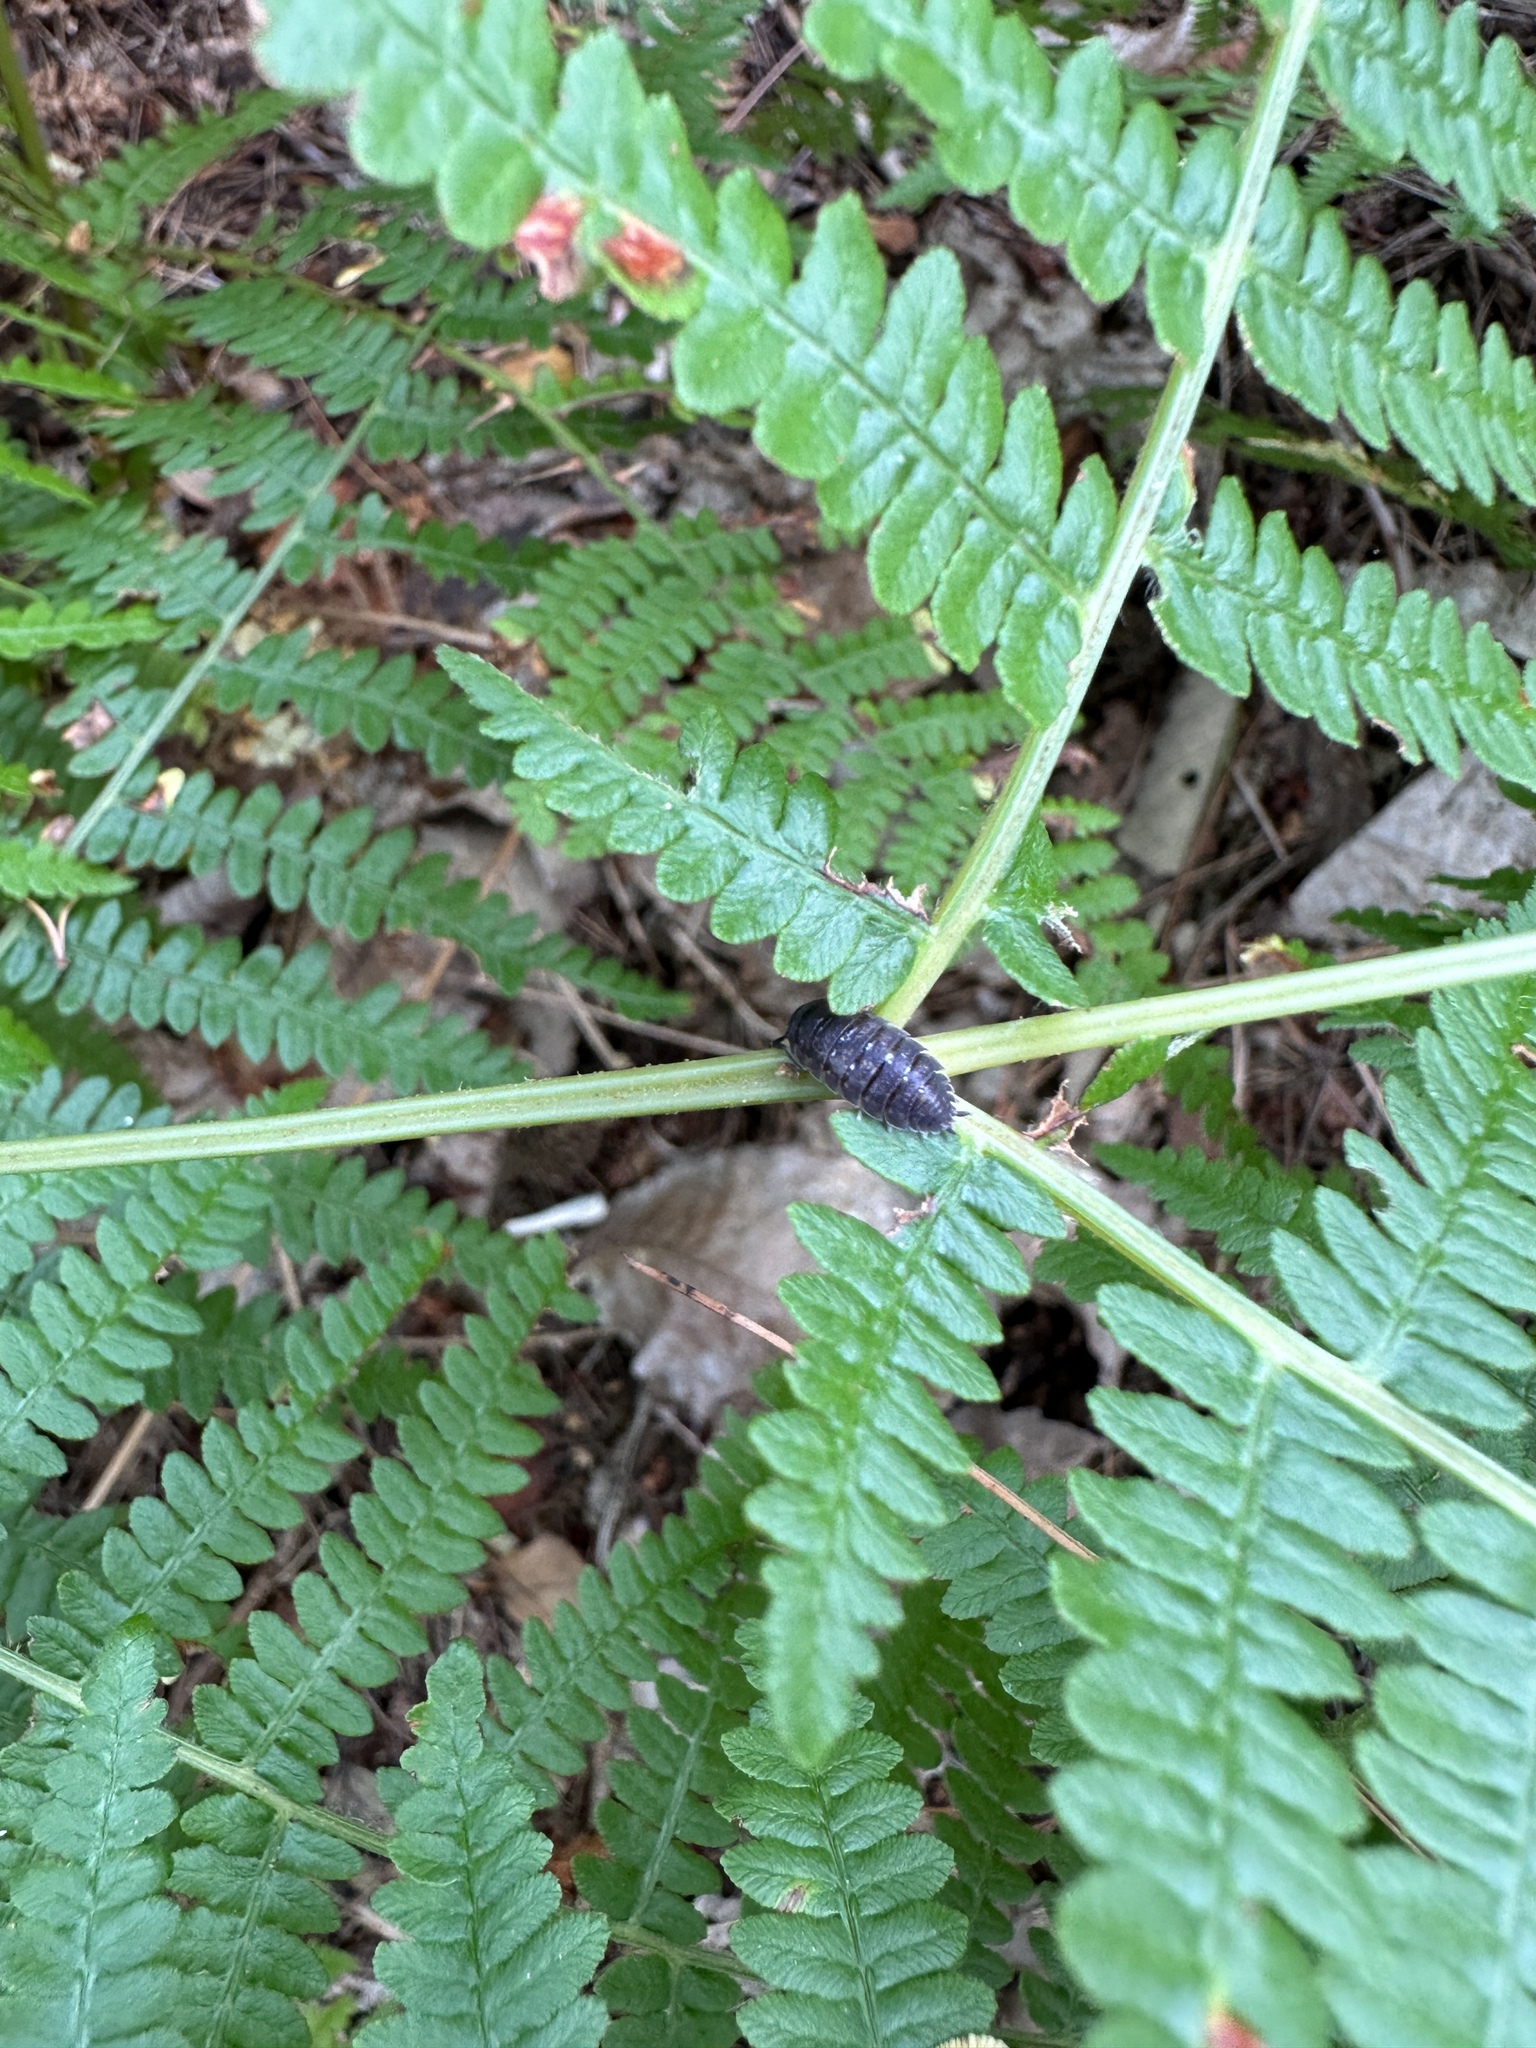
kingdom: Animalia
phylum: Arthropoda
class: Malacostraca
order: Isopoda
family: Porcellionidae
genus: Porcellio
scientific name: Porcellio scaber
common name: Common rough woodlouse
